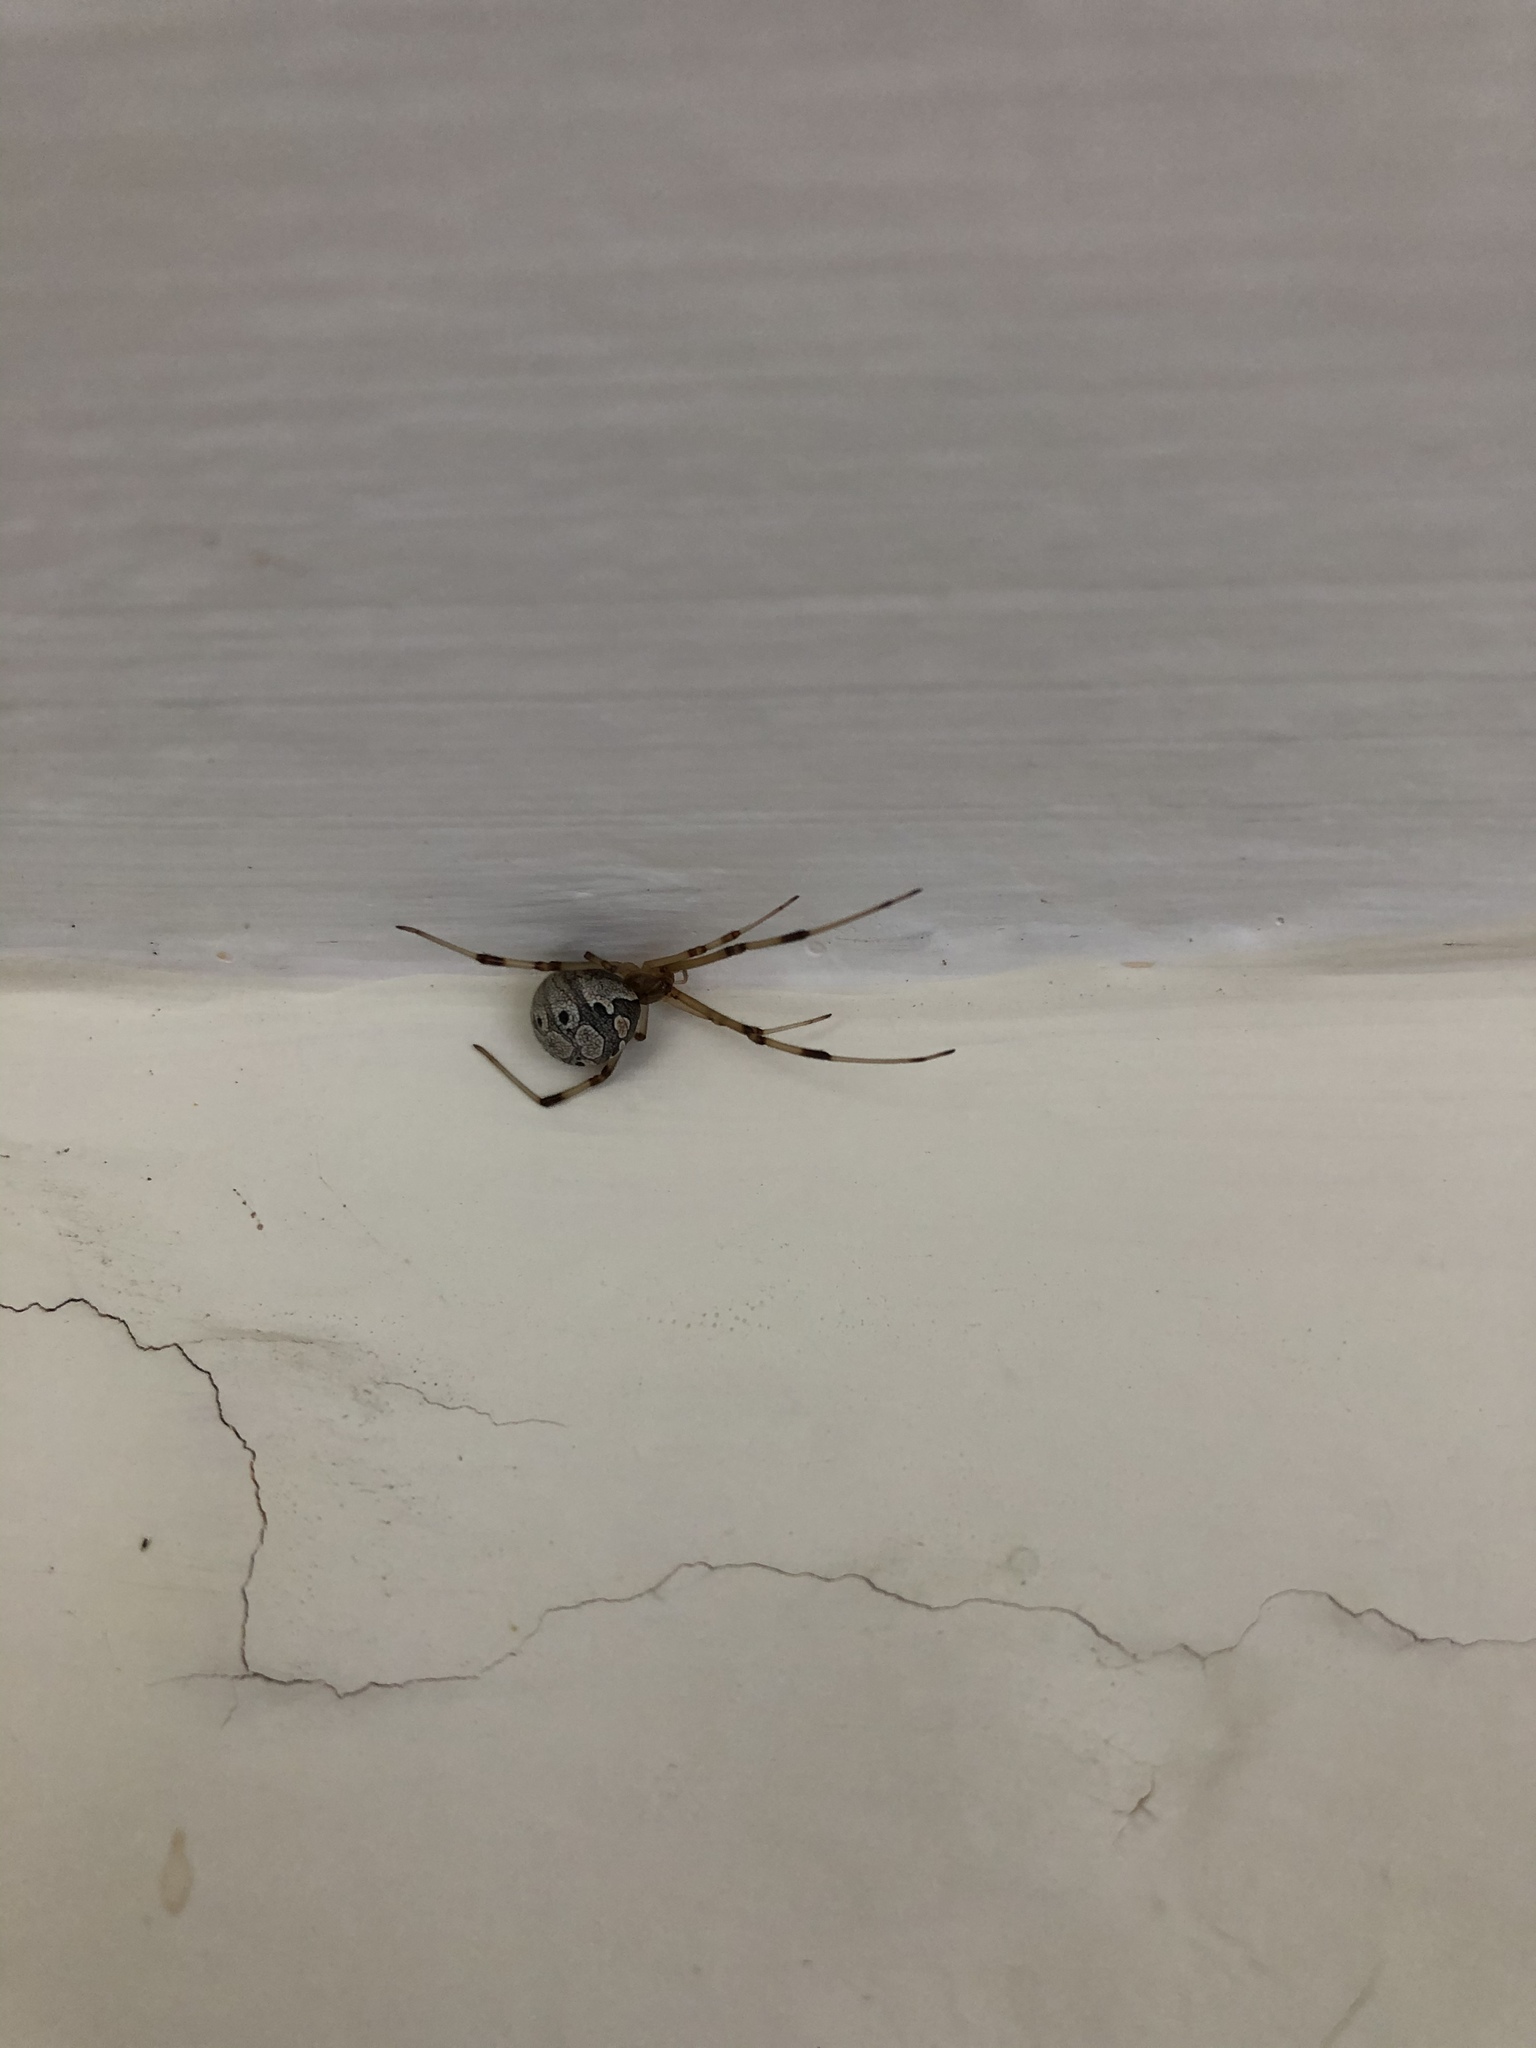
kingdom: Animalia
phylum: Arthropoda
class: Arachnida
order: Araneae
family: Theridiidae
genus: Latrodectus
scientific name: Latrodectus geometricus
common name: Brown widow spider
